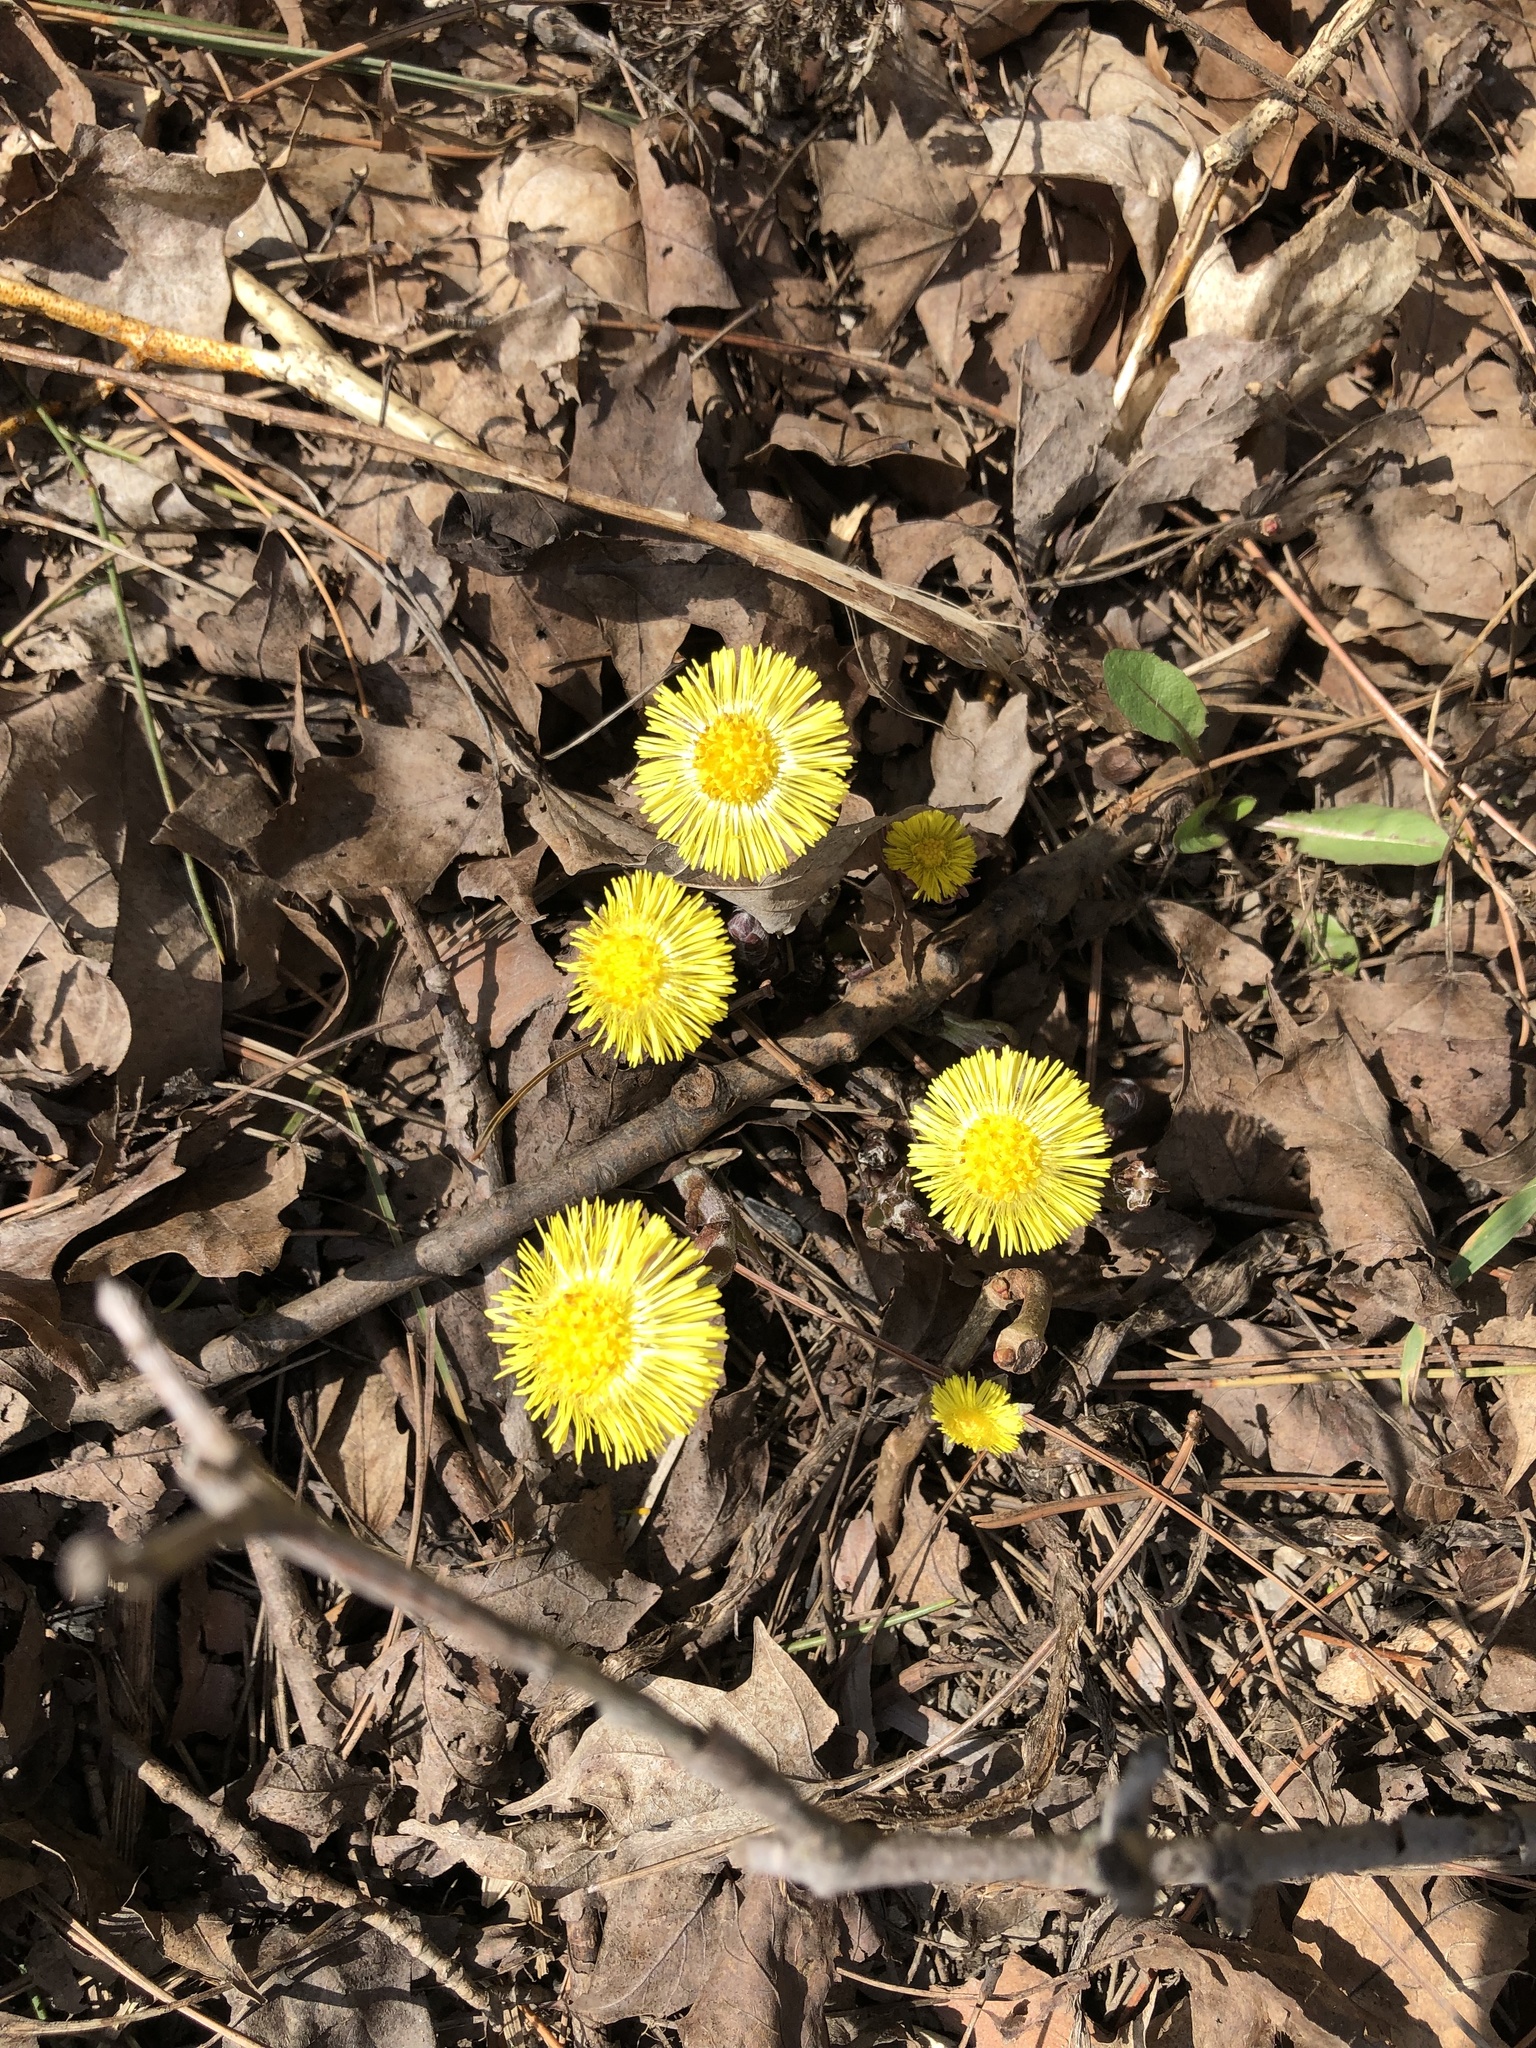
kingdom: Plantae
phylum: Tracheophyta
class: Magnoliopsida
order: Asterales
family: Asteraceae
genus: Tussilago
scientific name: Tussilago farfara
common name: Coltsfoot
